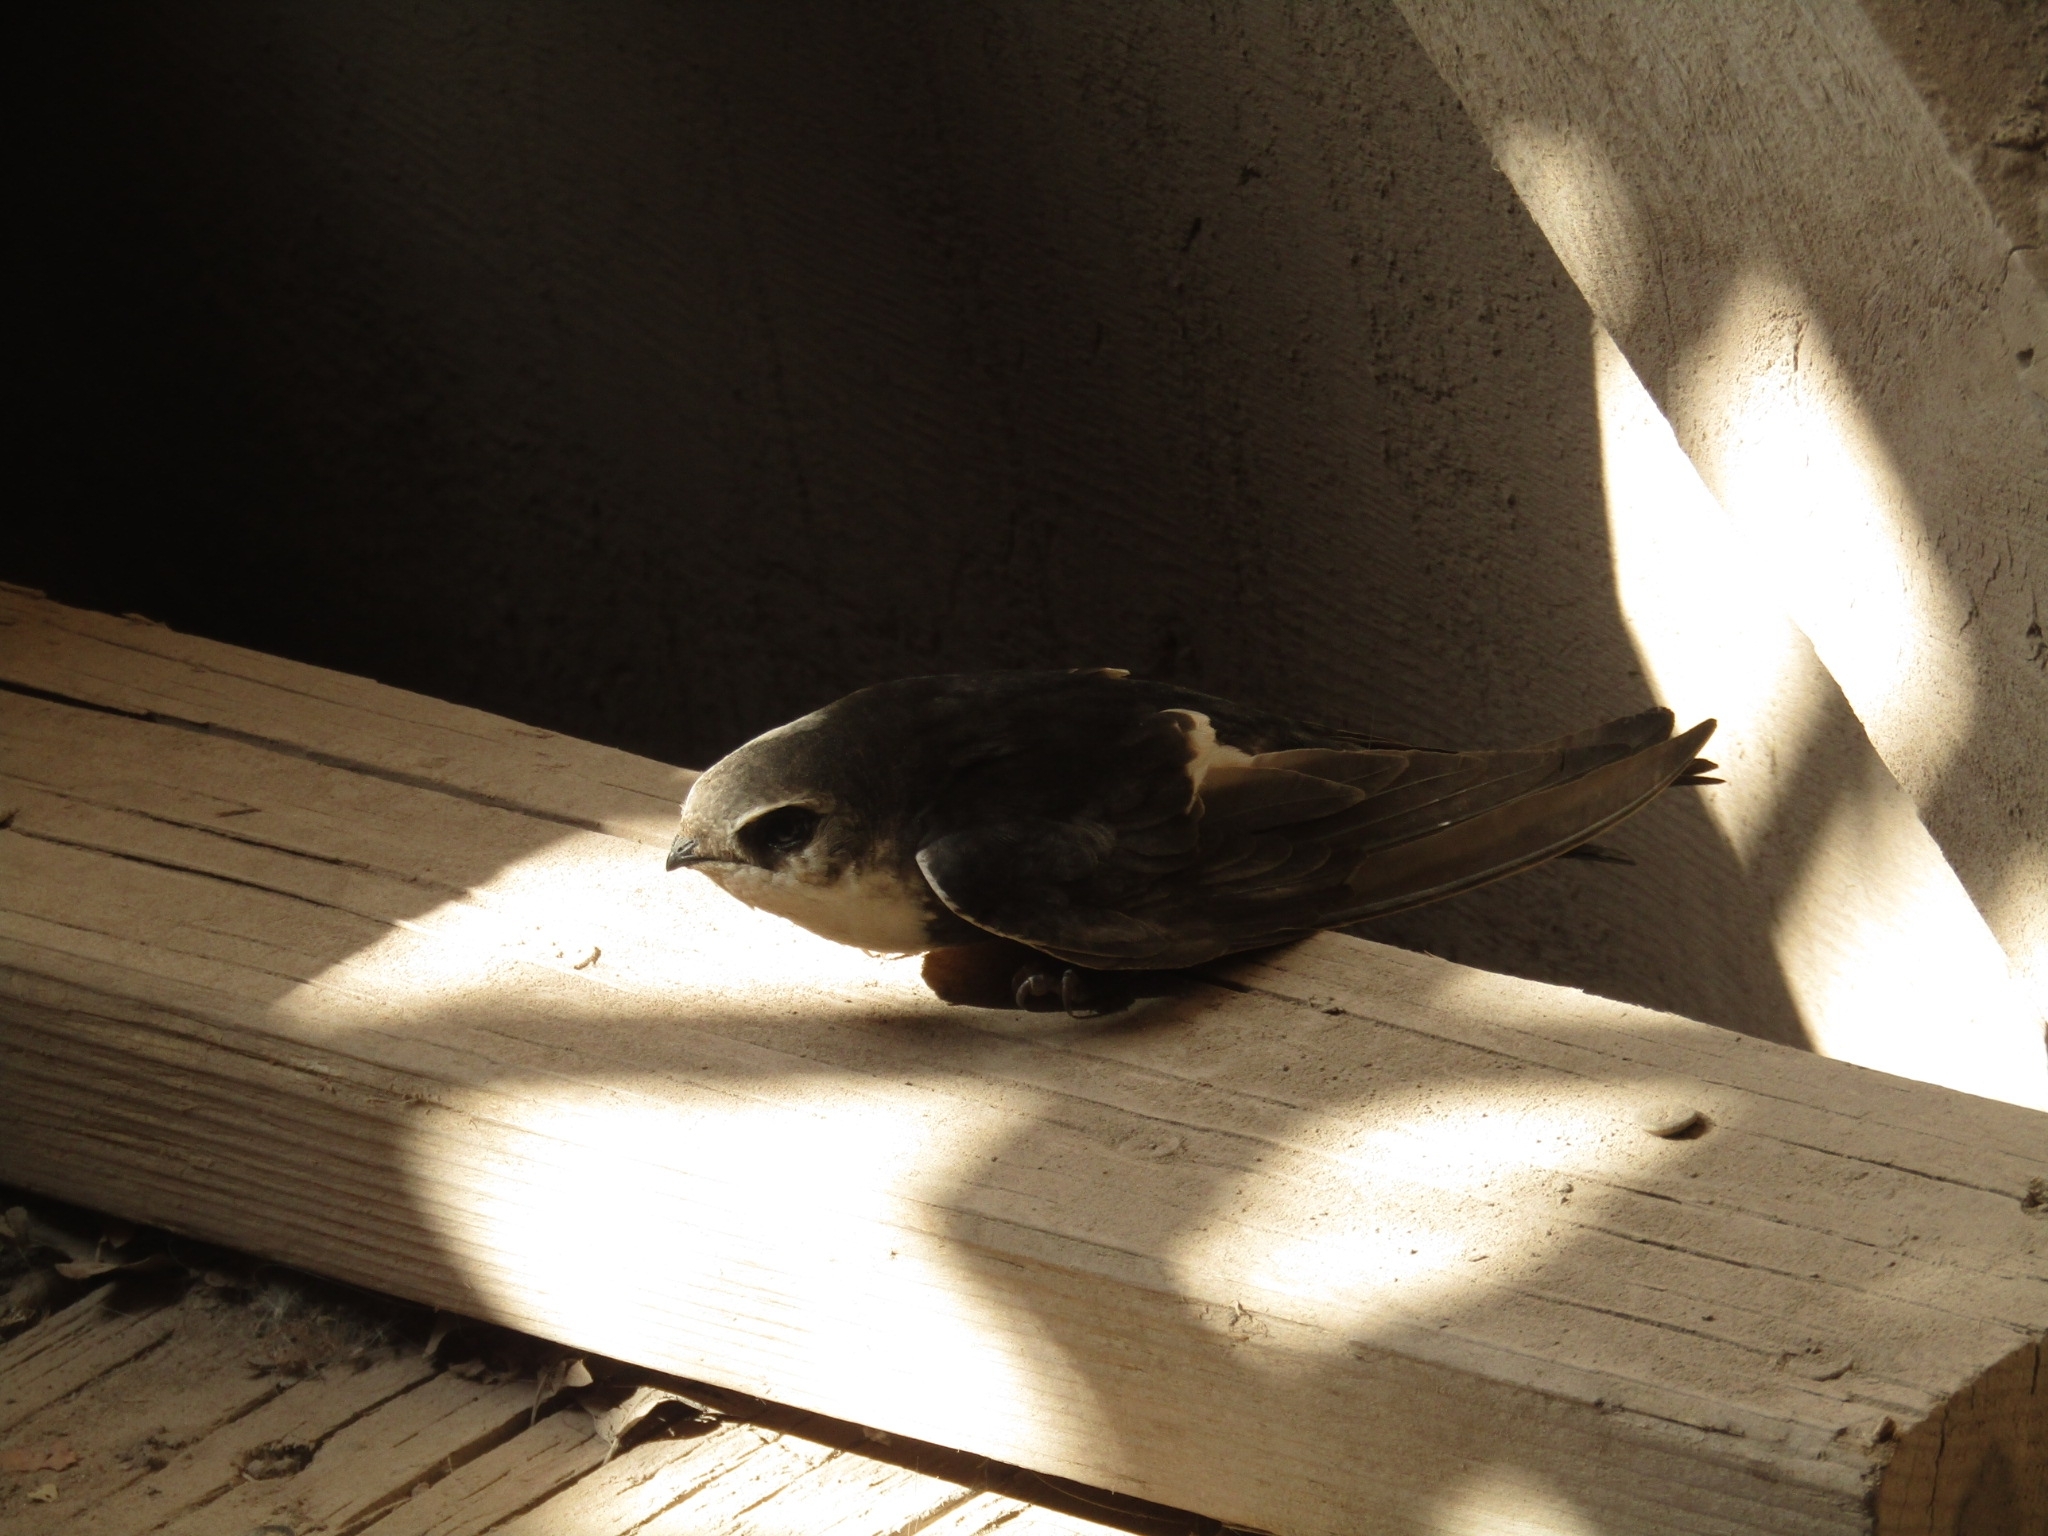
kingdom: Animalia
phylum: Chordata
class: Aves
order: Apodiformes
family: Apodidae
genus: Aeronautes
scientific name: Aeronautes saxatalis
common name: White-throated swift
